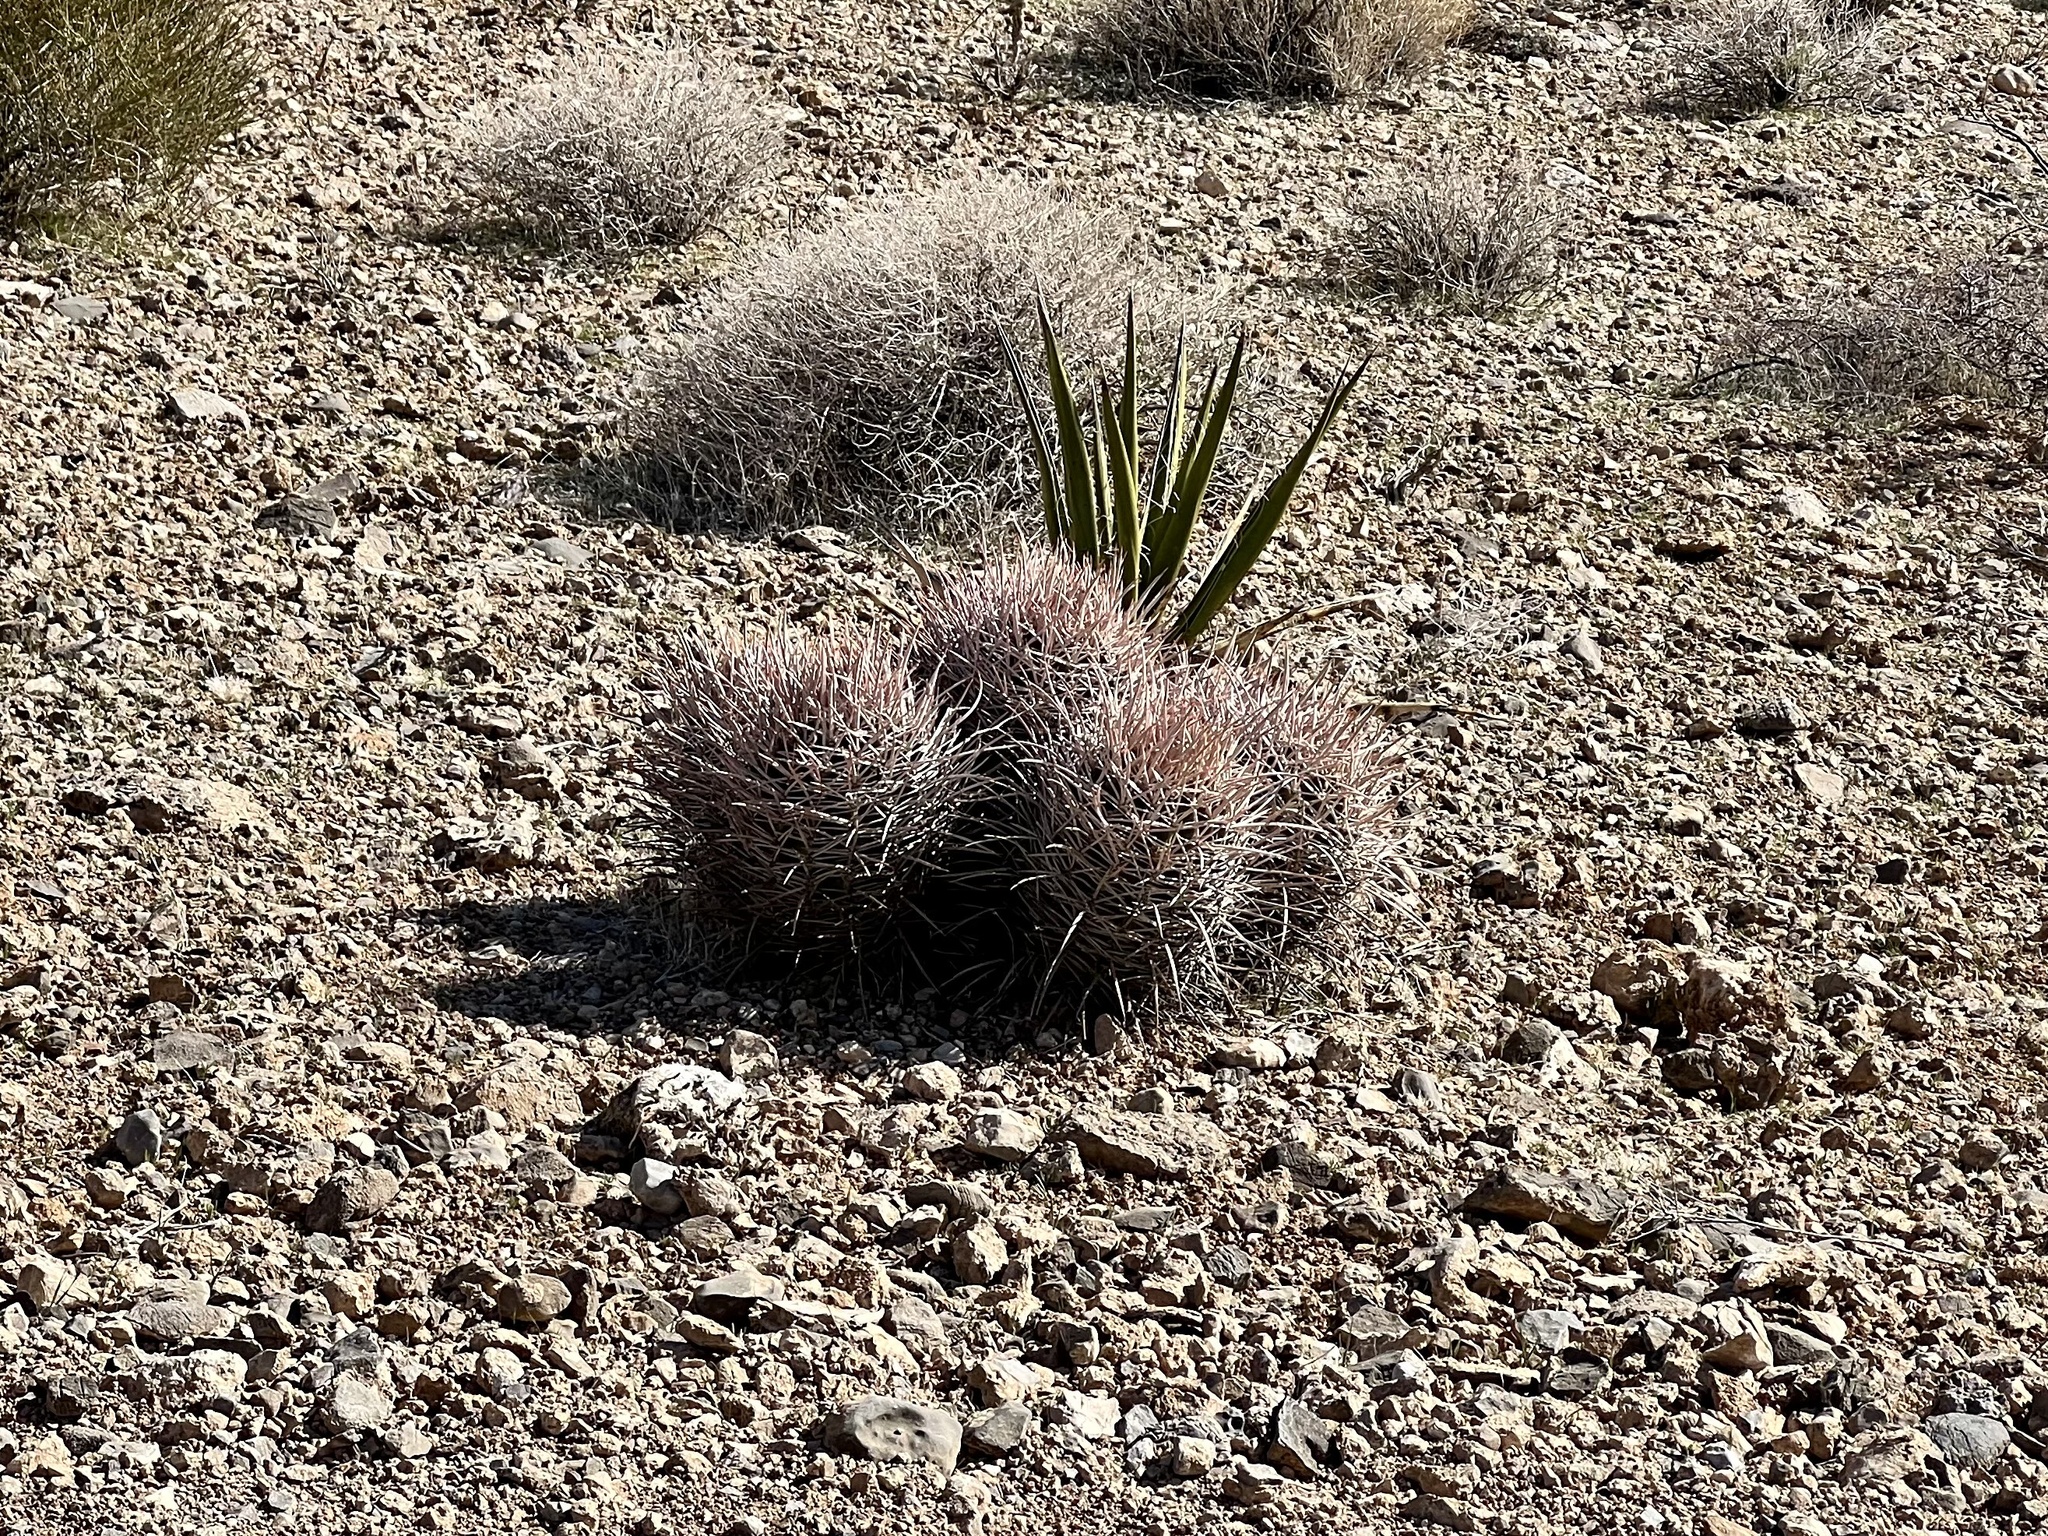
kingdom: Plantae
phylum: Tracheophyta
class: Magnoliopsida
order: Caryophyllales
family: Cactaceae
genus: Echinocactus
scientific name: Echinocactus polycephalus
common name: Cottontop cactus
